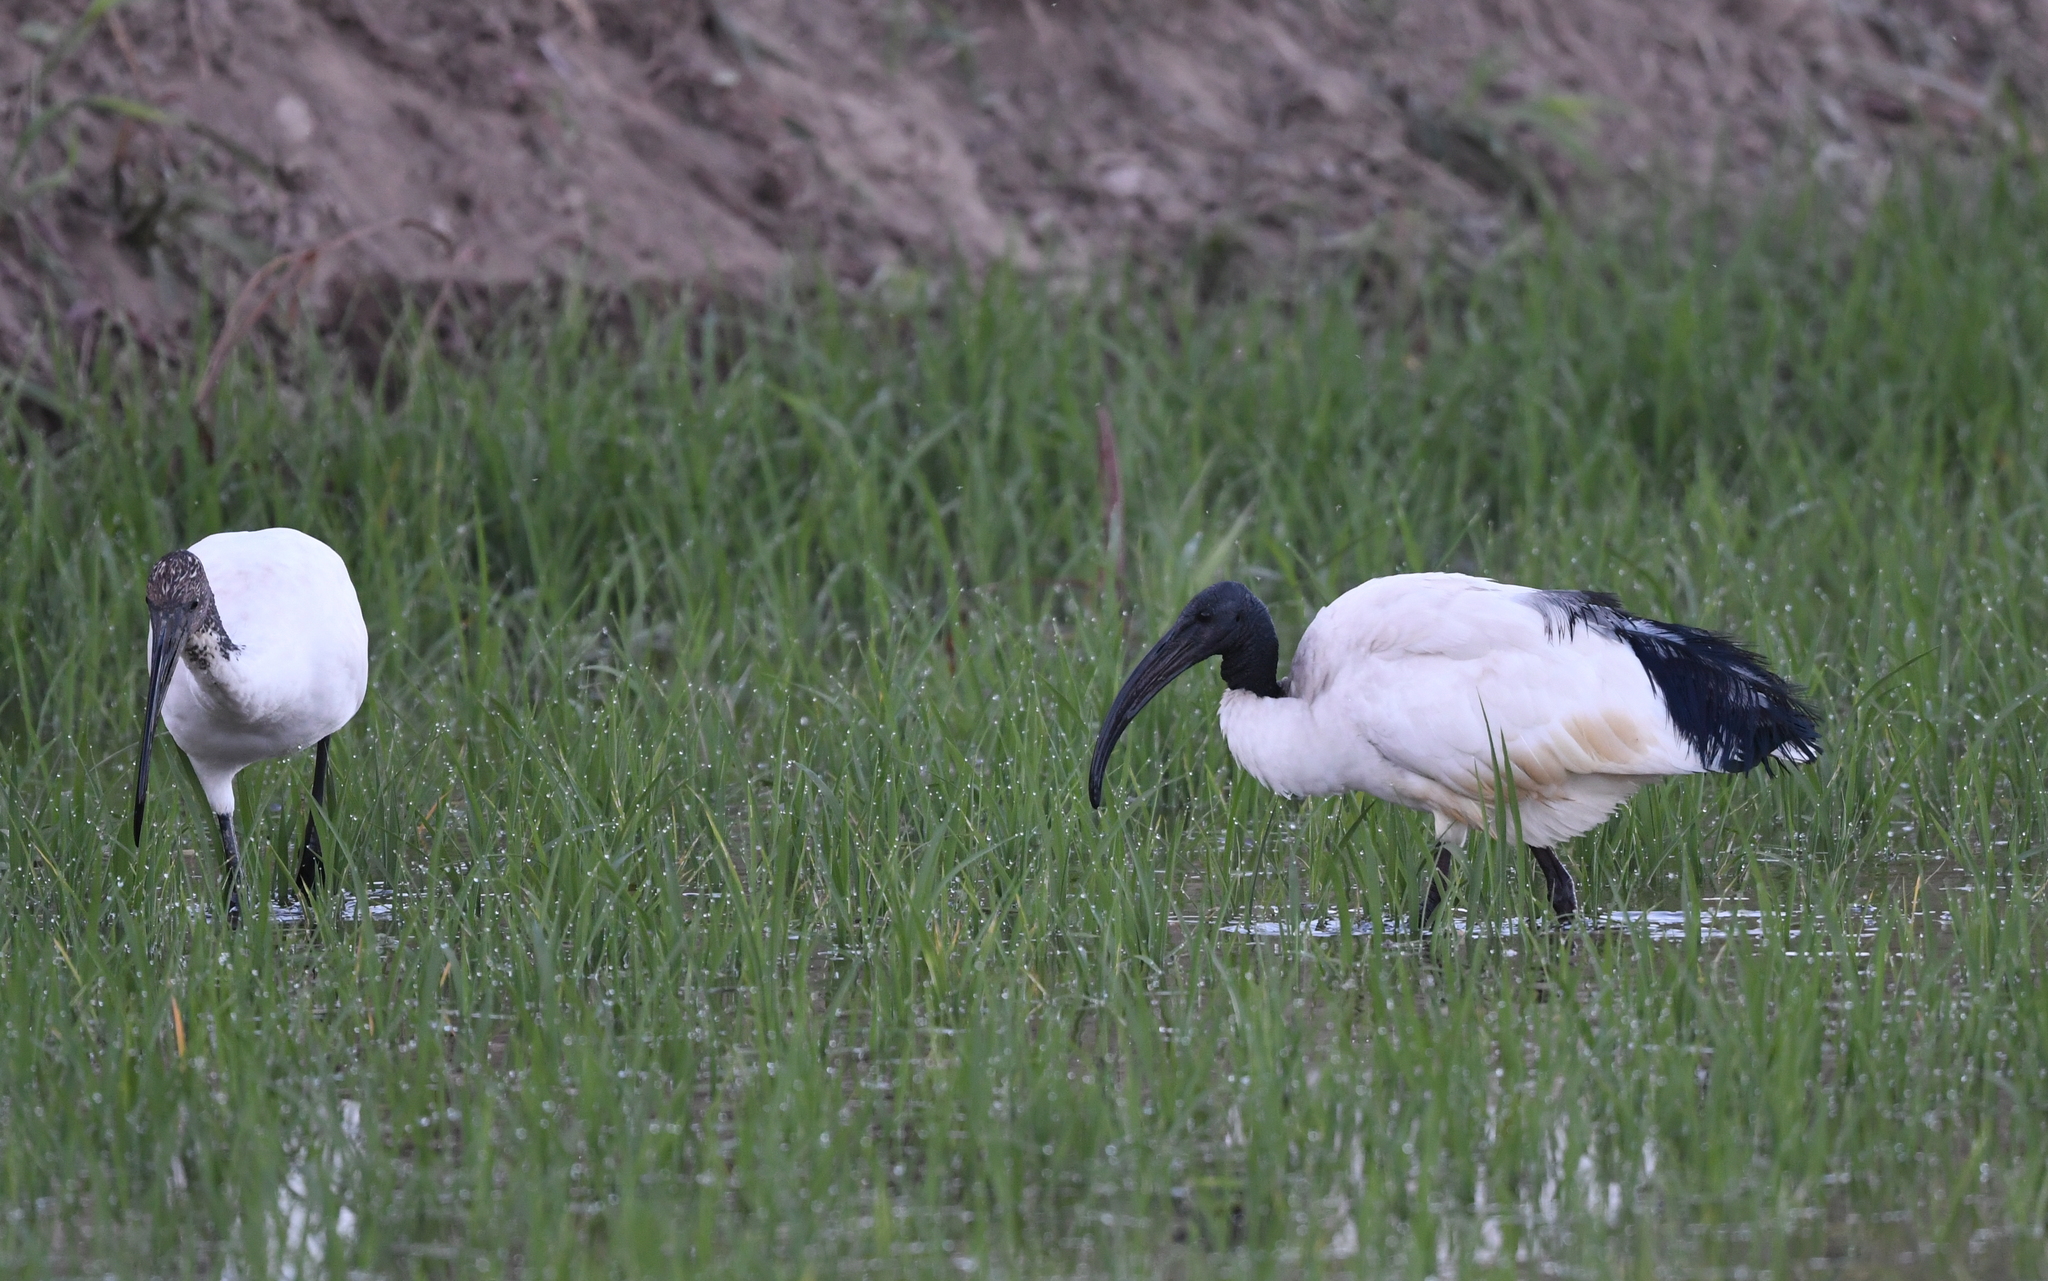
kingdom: Animalia
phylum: Chordata
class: Aves
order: Pelecaniformes
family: Threskiornithidae
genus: Threskiornis
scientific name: Threskiornis aethiopicus
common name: Sacred ibis
